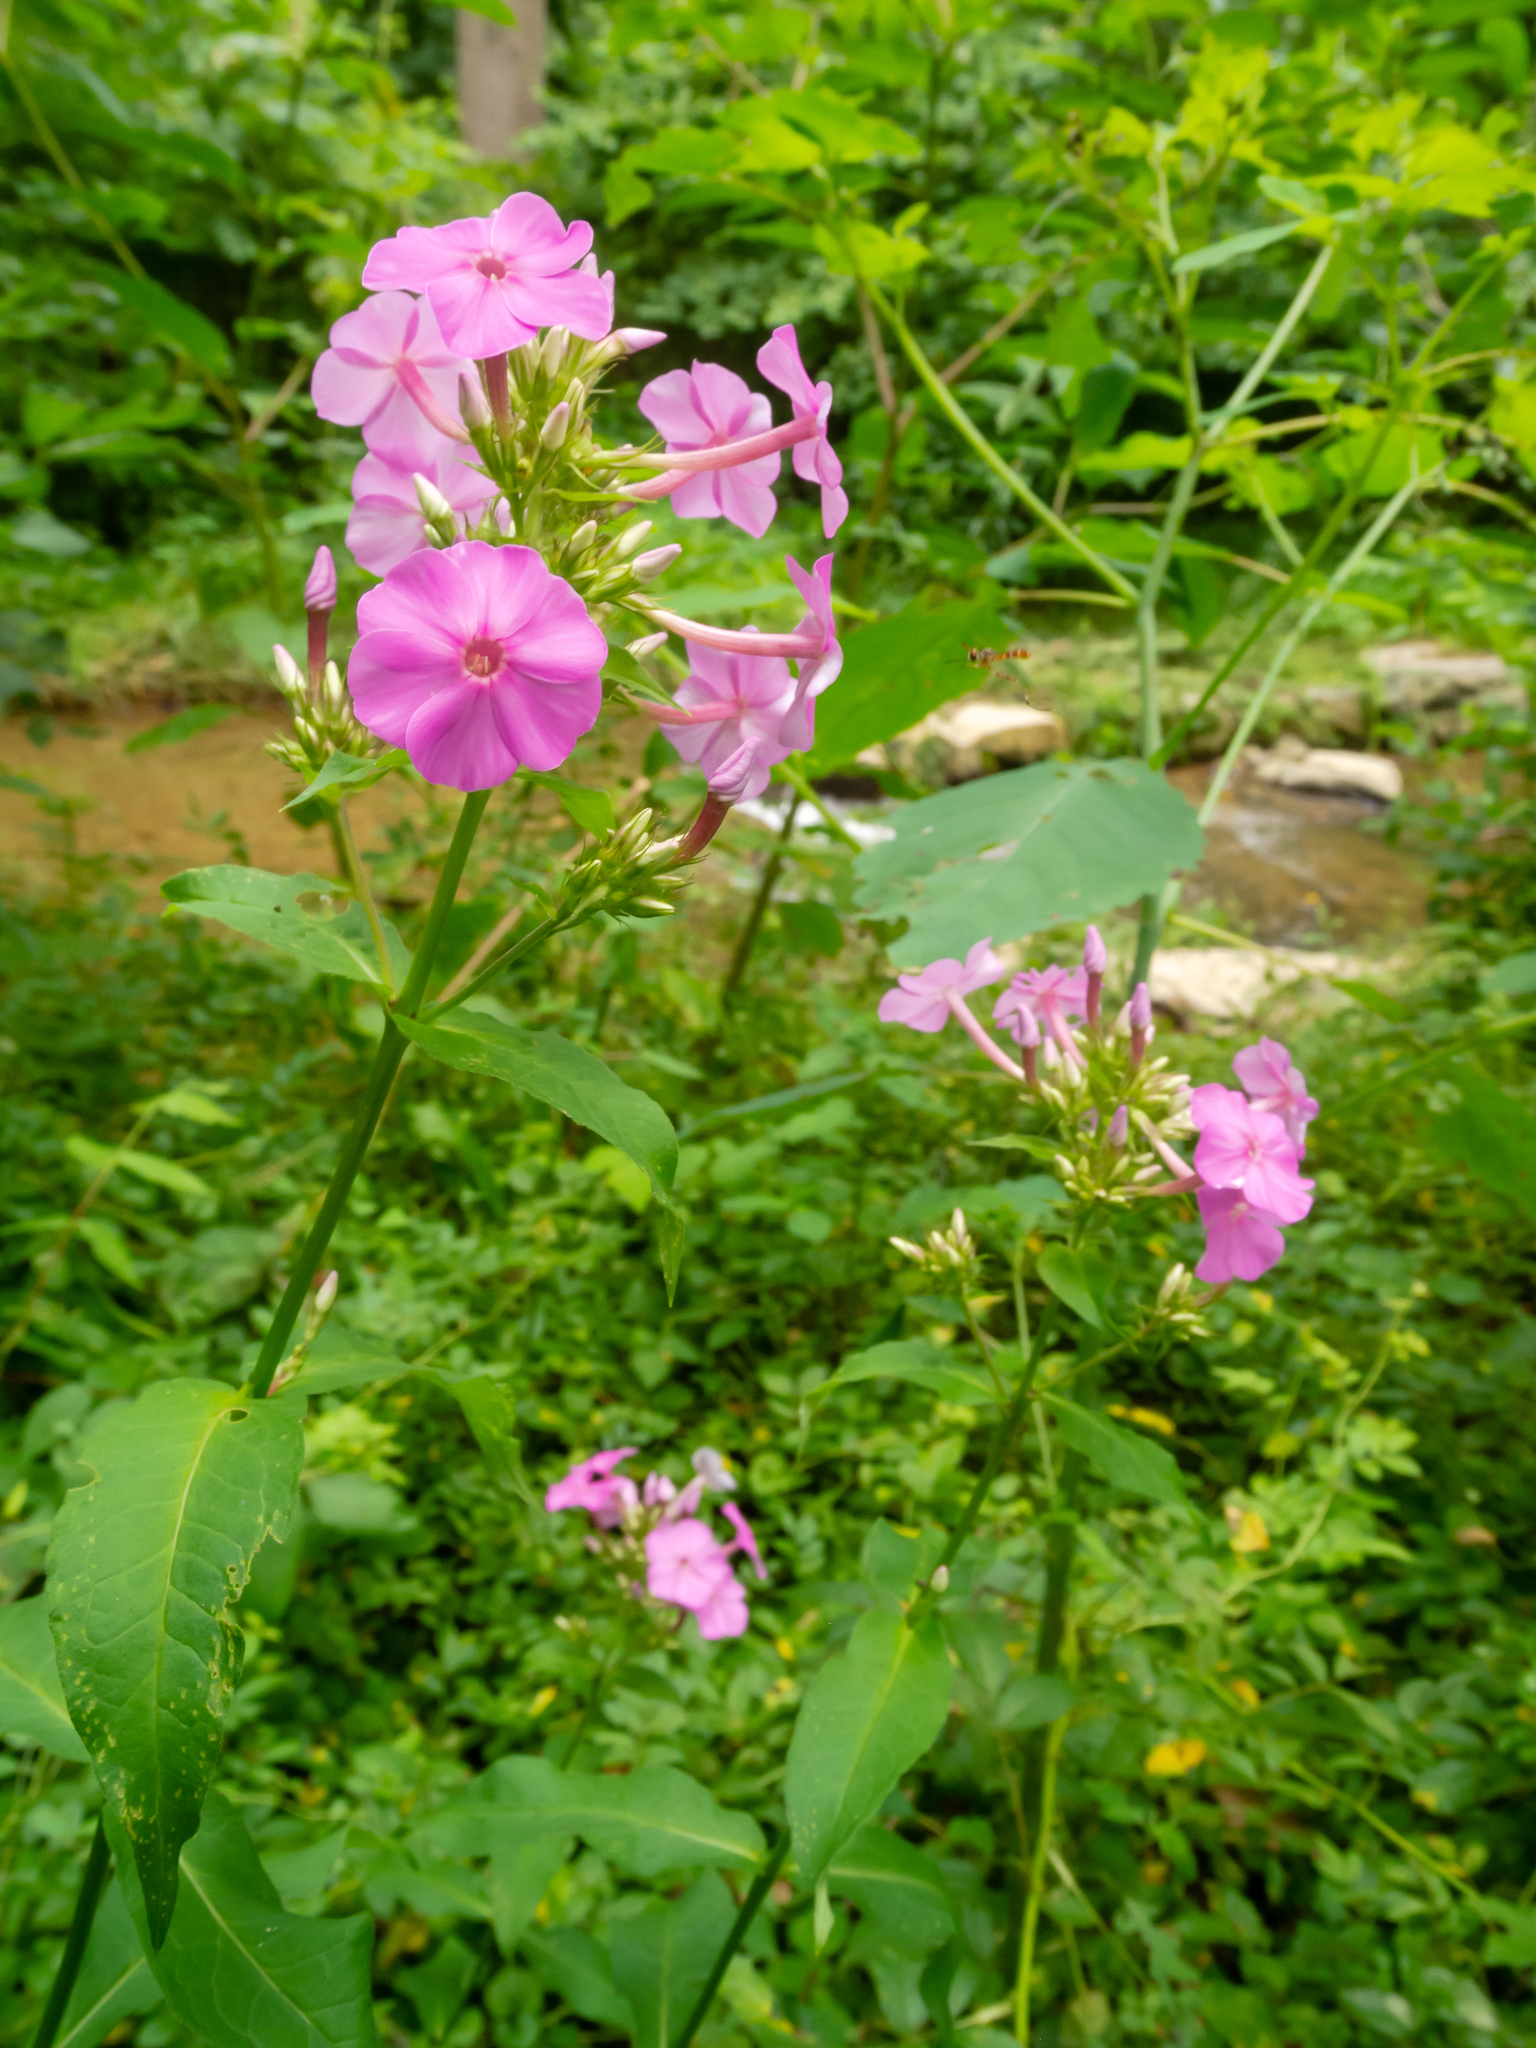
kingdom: Plantae
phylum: Tracheophyta
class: Magnoliopsida
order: Ericales
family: Polemoniaceae
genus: Phlox
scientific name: Phlox paniculata
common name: Fall phlox
